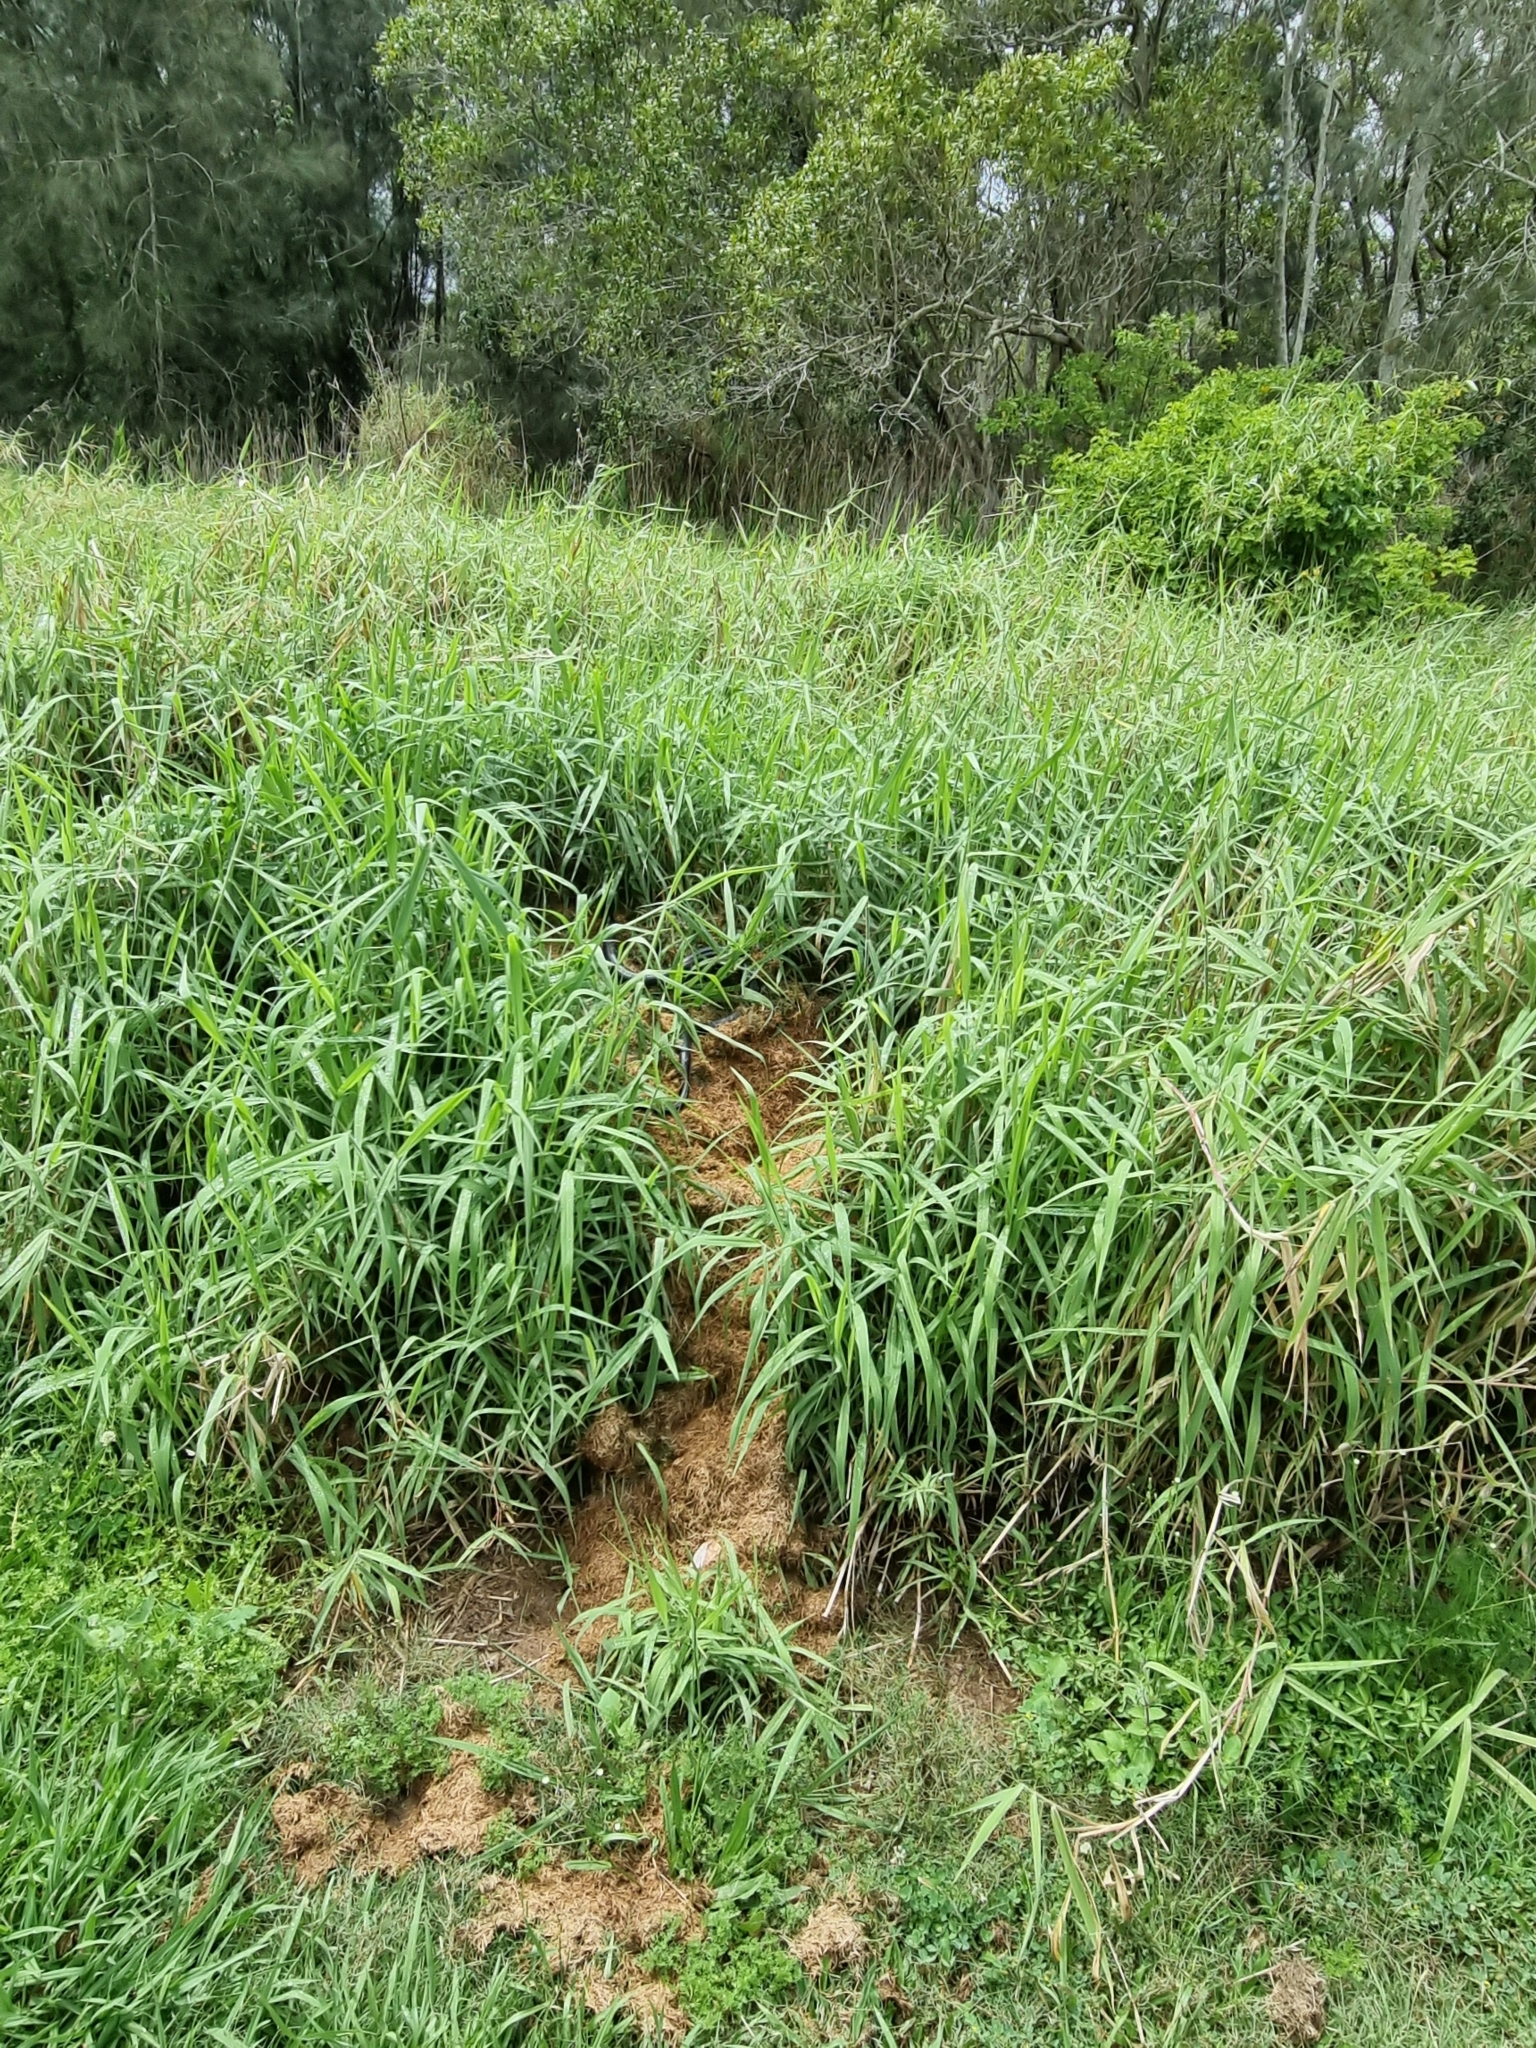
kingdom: Animalia
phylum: Chordata
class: Squamata
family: Elapidae
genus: Pseudechis
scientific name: Pseudechis porphyriacus
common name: Australian black snake
